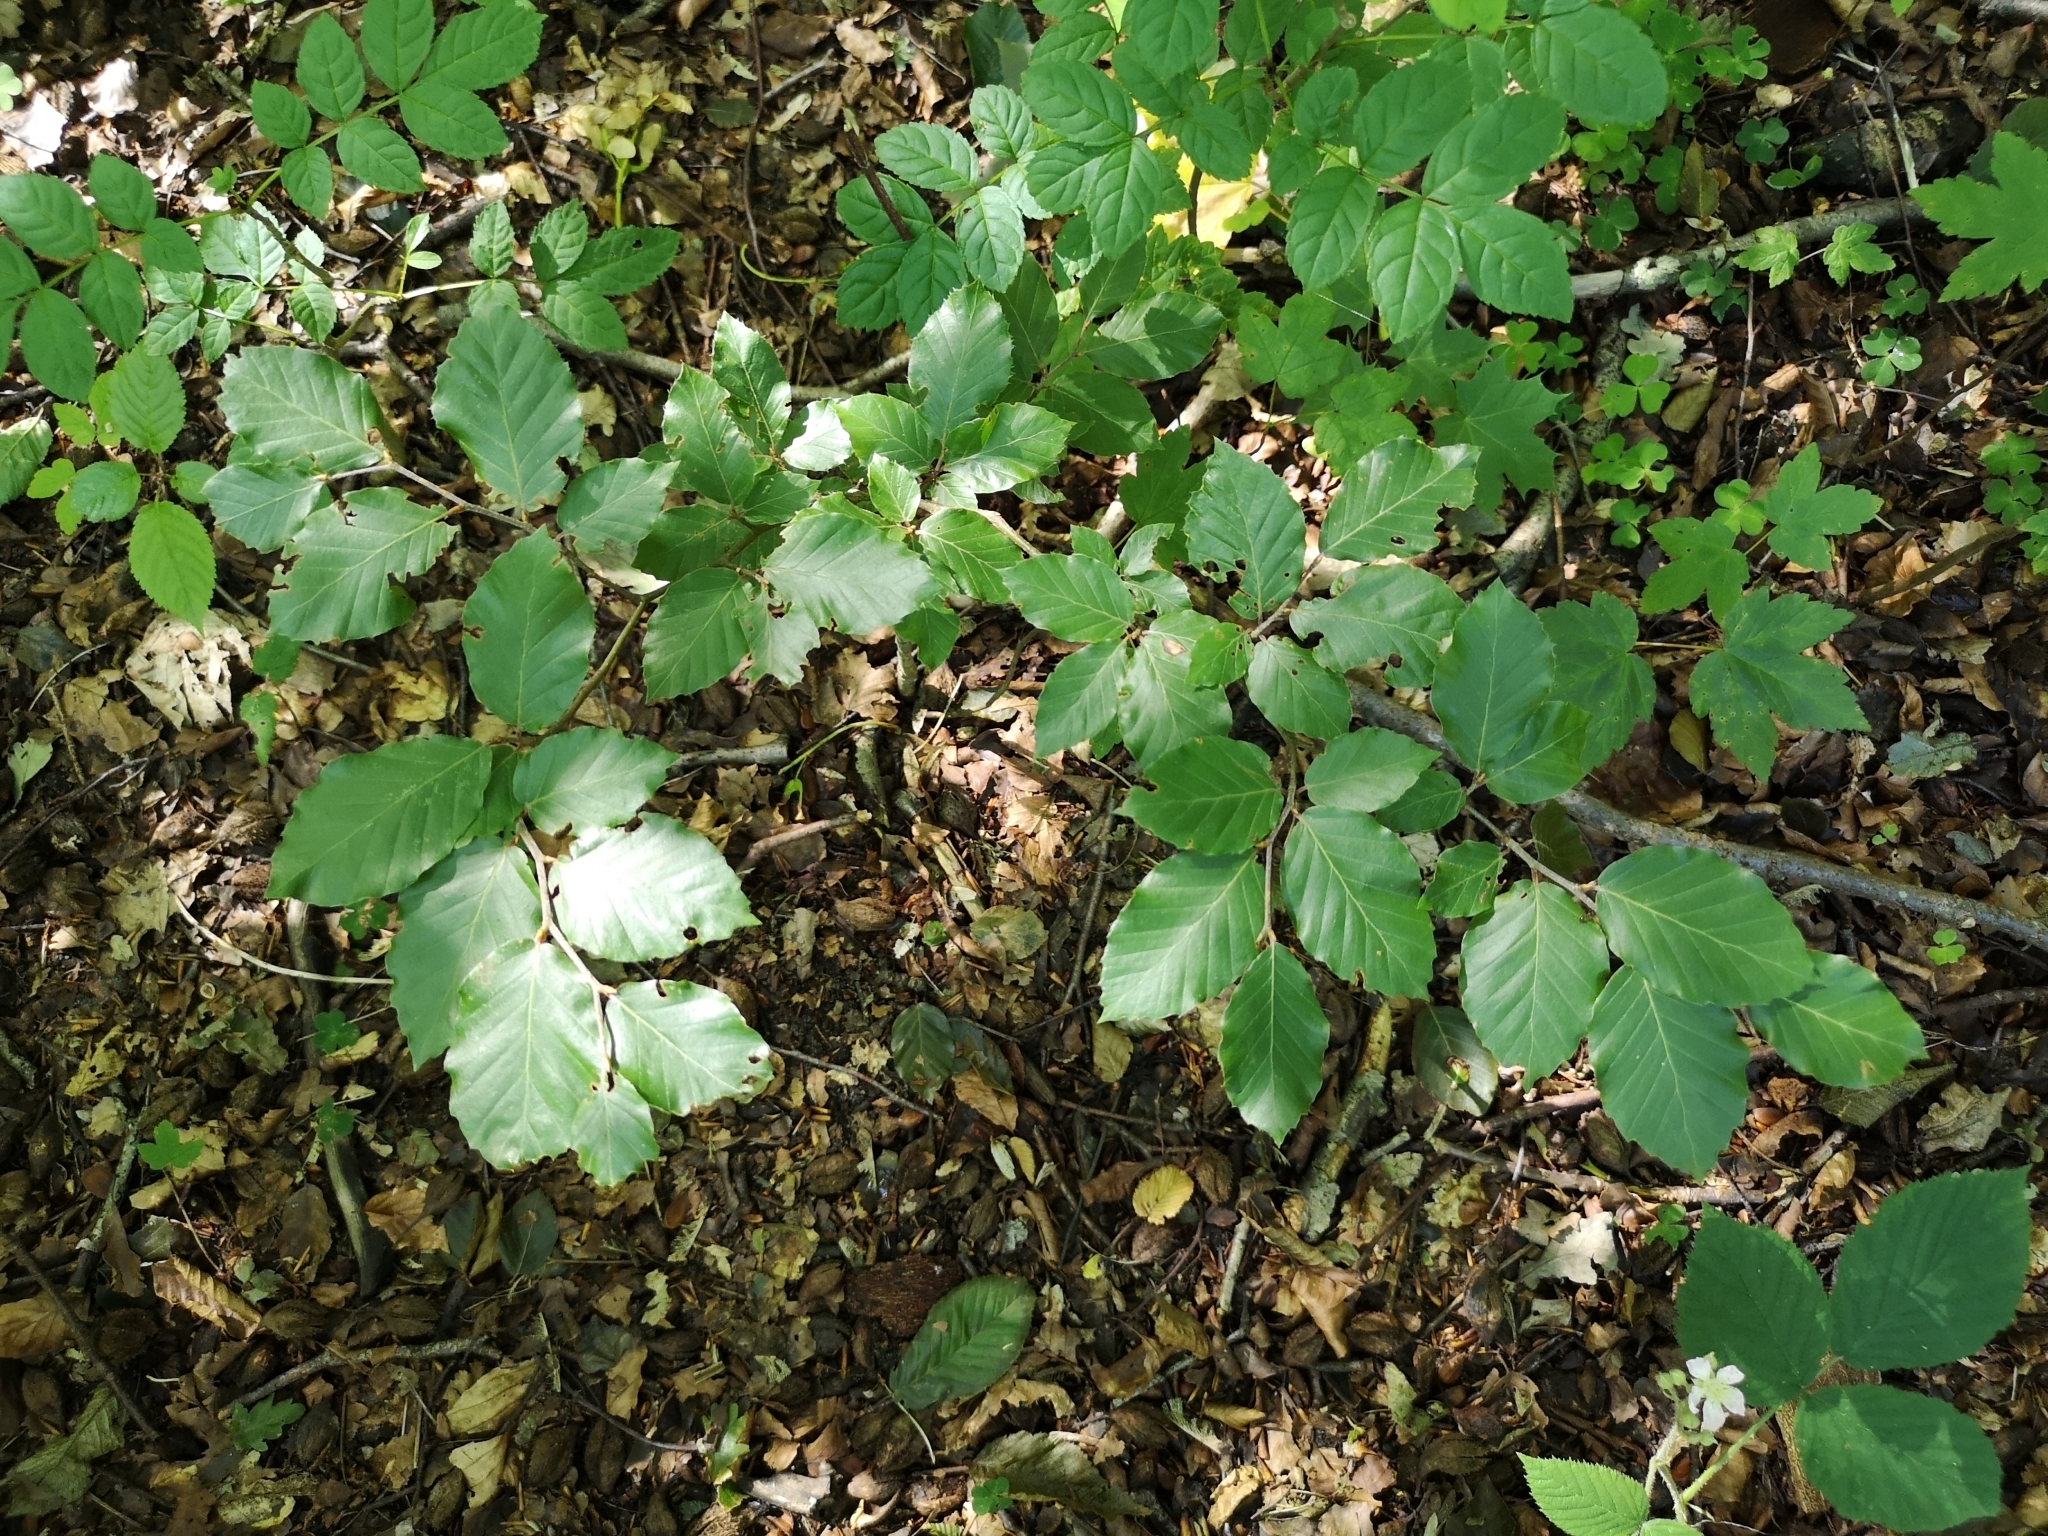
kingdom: Plantae
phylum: Tracheophyta
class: Magnoliopsida
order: Fagales
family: Fagaceae
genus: Fagus
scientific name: Fagus sylvatica
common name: Beech
